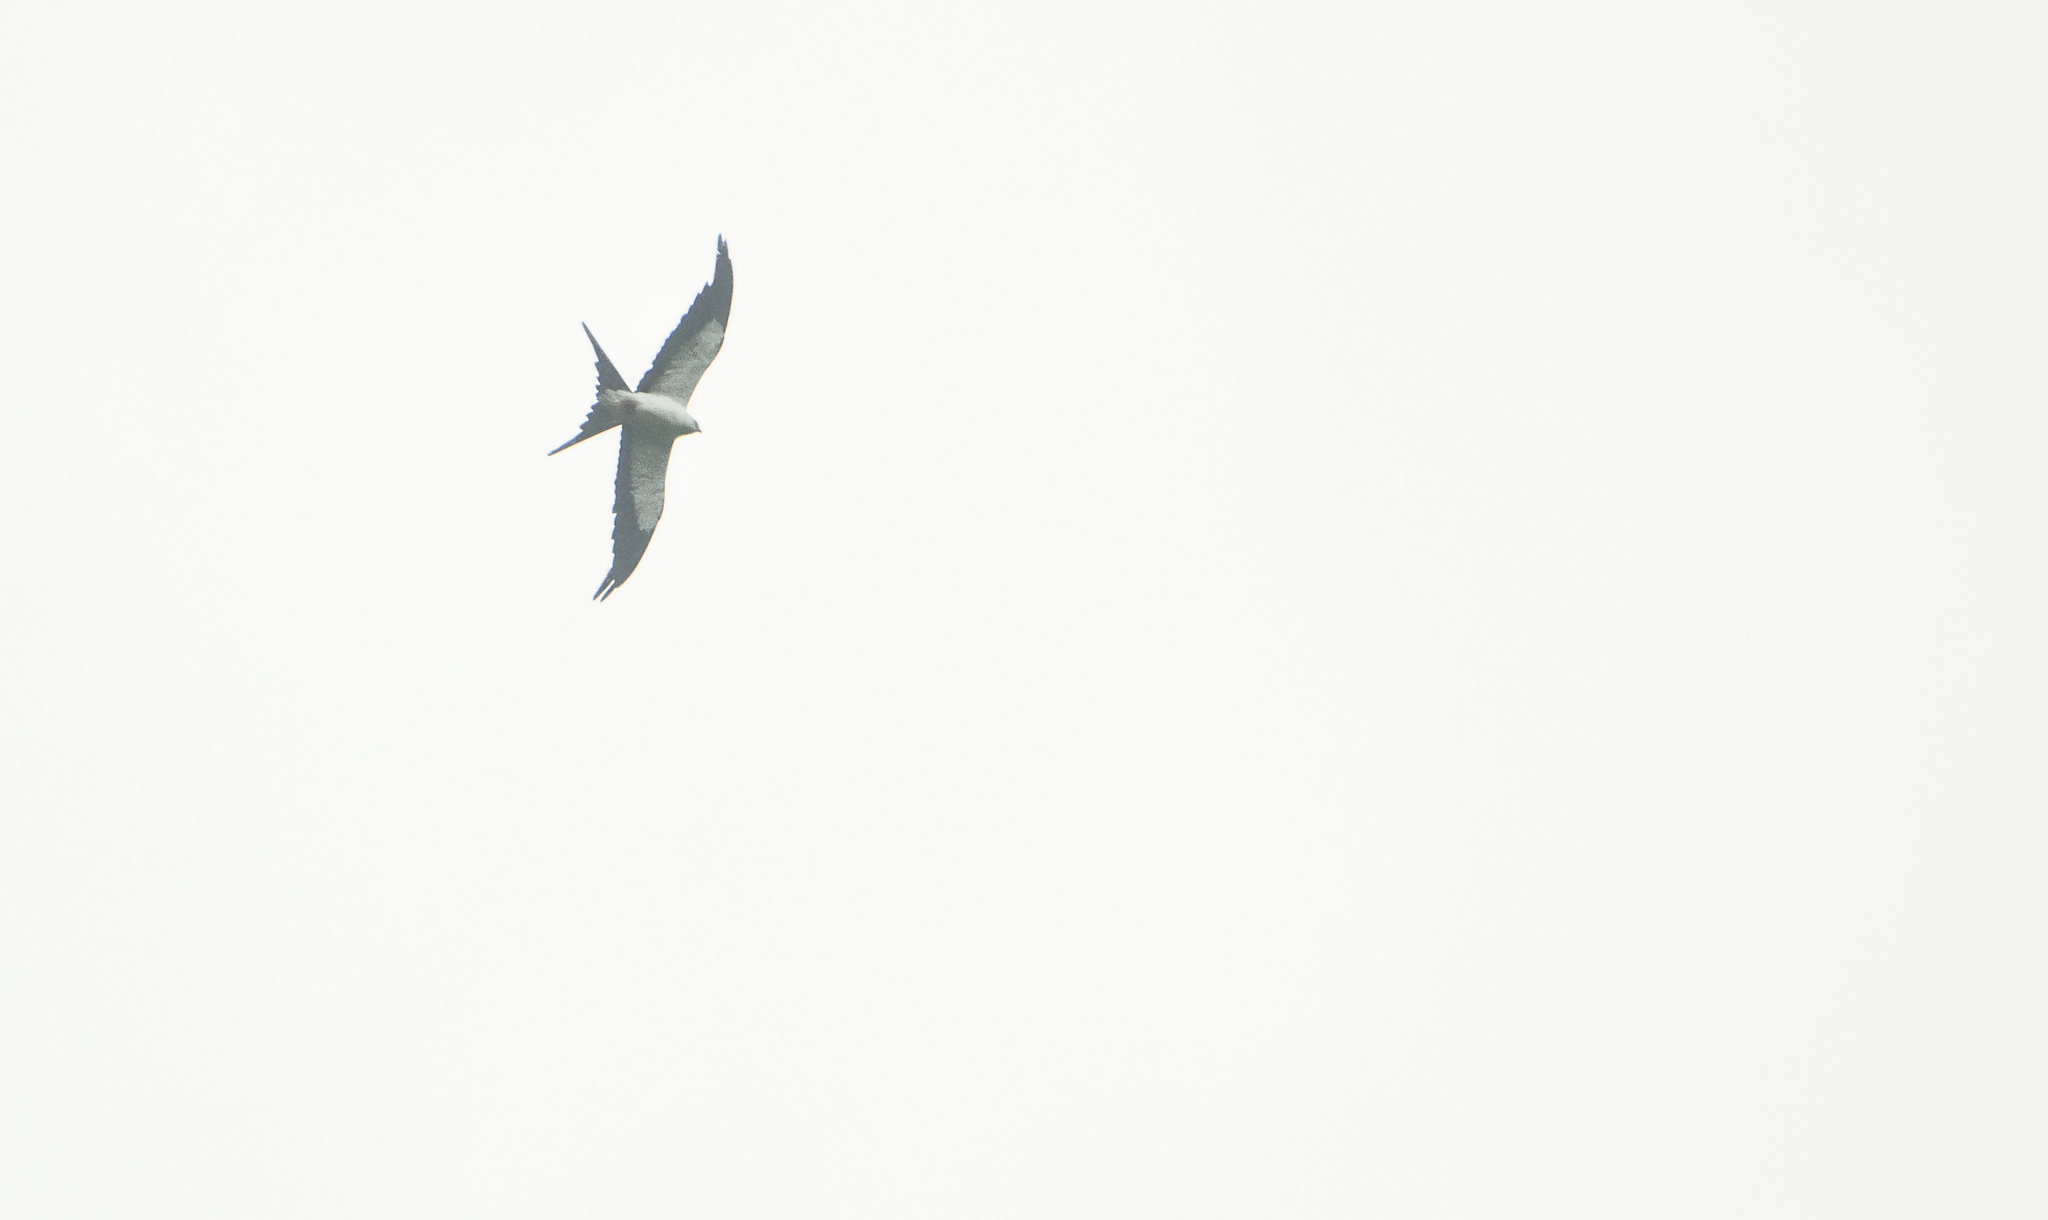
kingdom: Animalia
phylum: Chordata
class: Aves
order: Accipitriformes
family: Accipitridae
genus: Elanoides
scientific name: Elanoides forficatus
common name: Swallow-tailed kite
